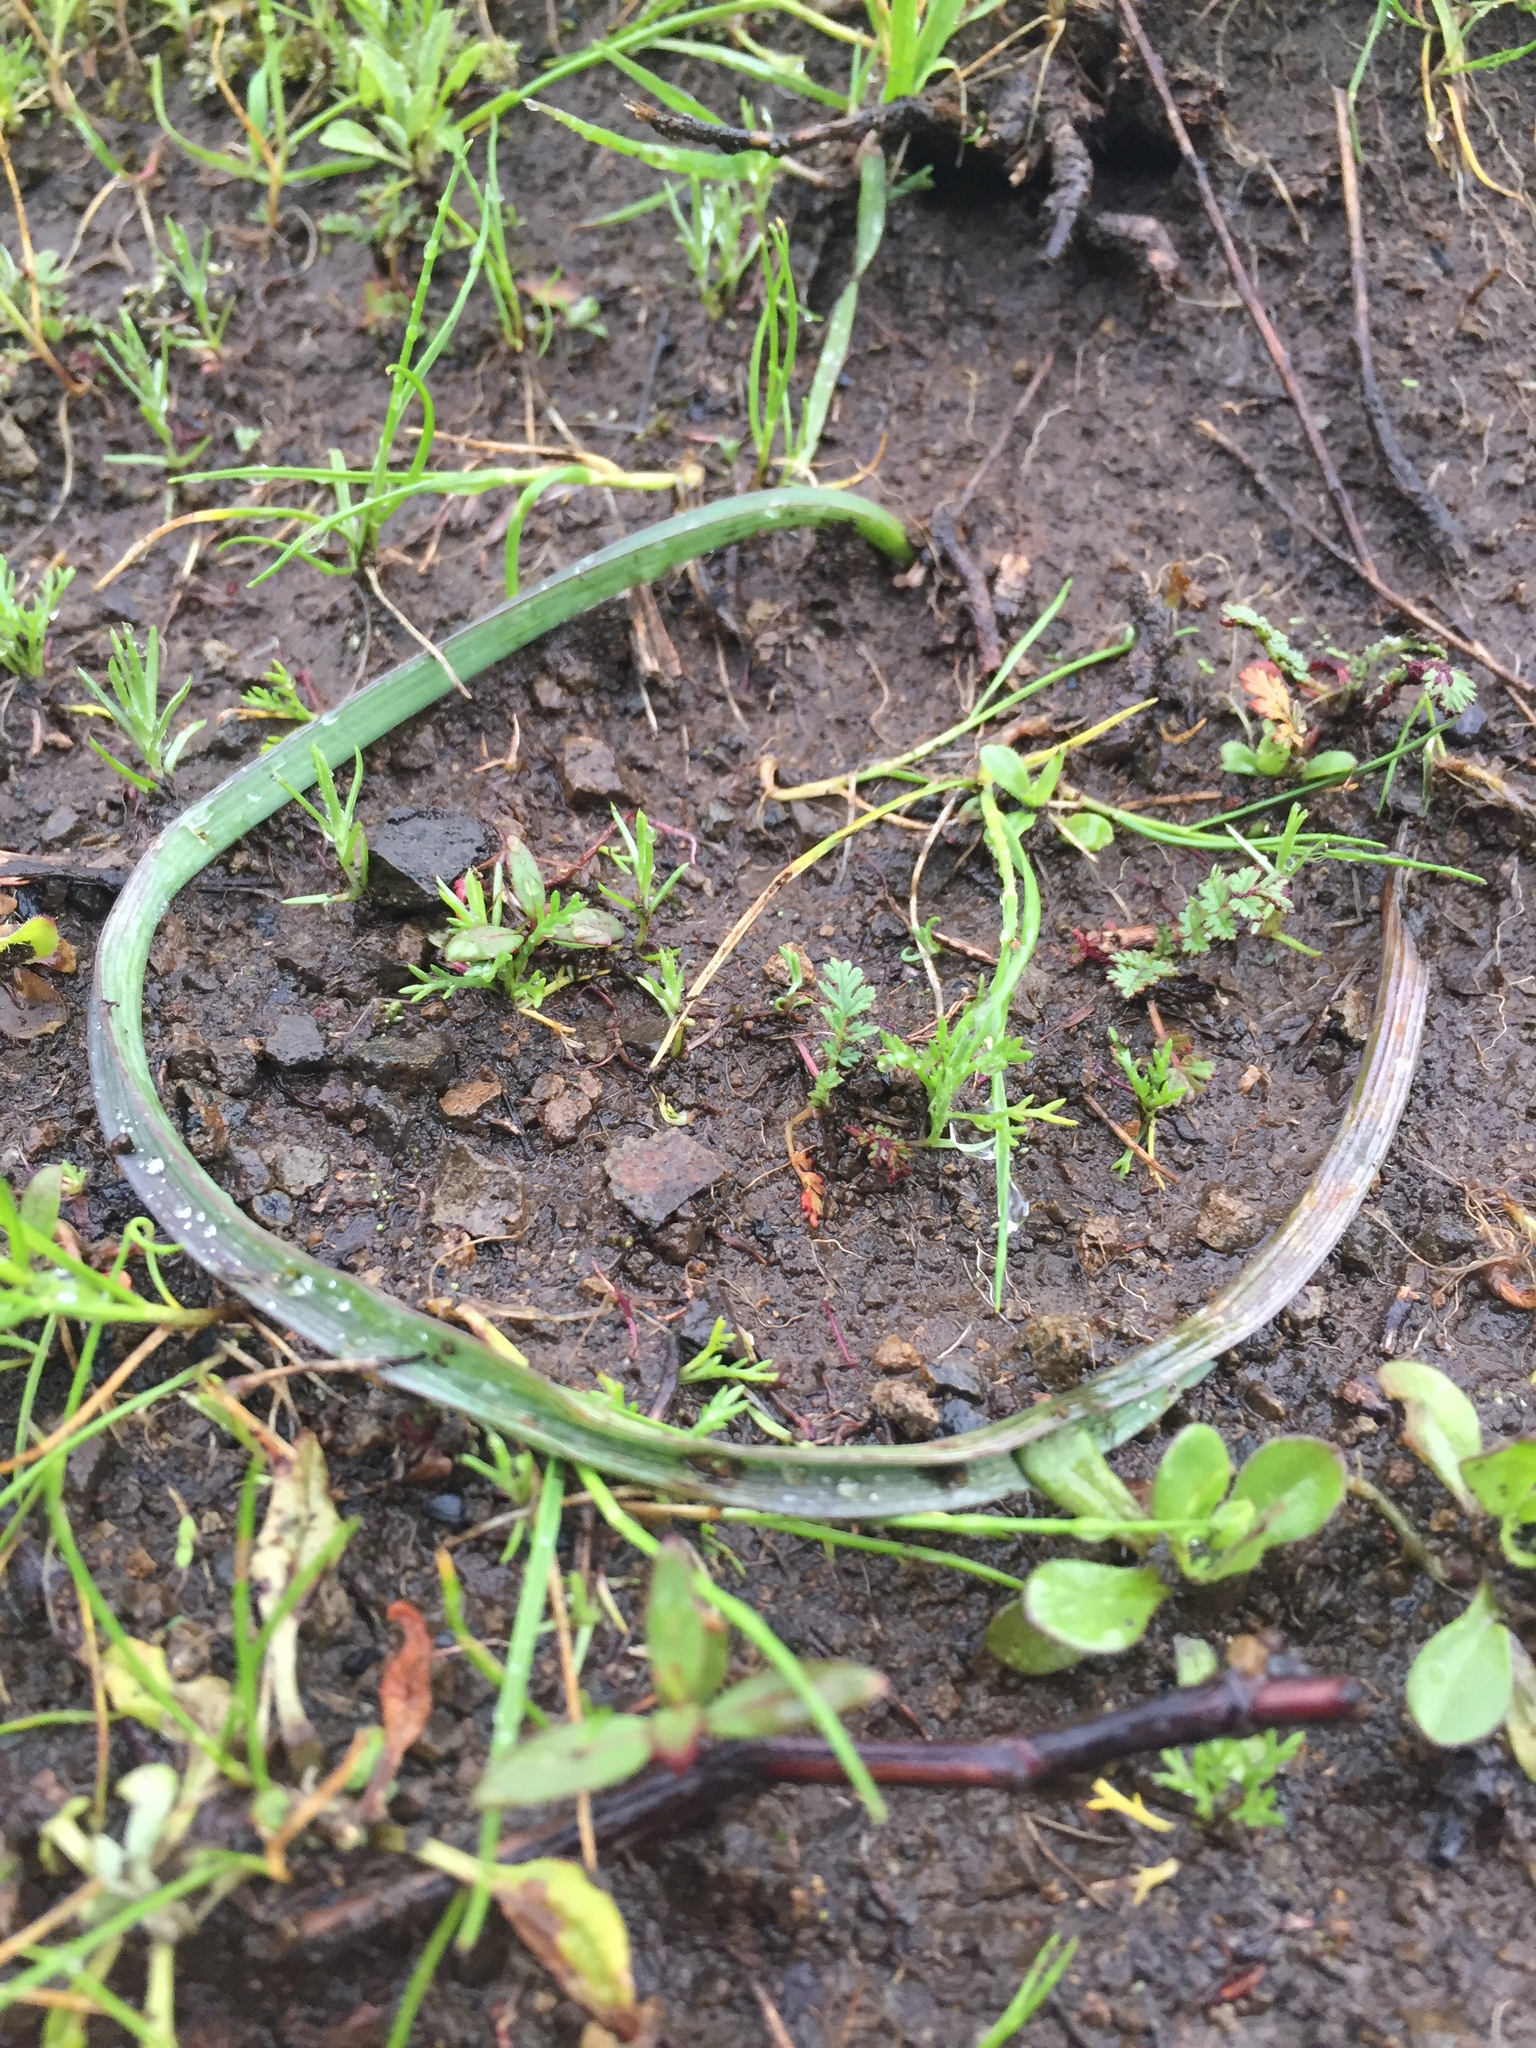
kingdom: Plantae
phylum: Tracheophyta
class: Liliopsida
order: Asparagales
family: Asparagaceae
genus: Dipterostemon
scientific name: Dipterostemon capitatus
